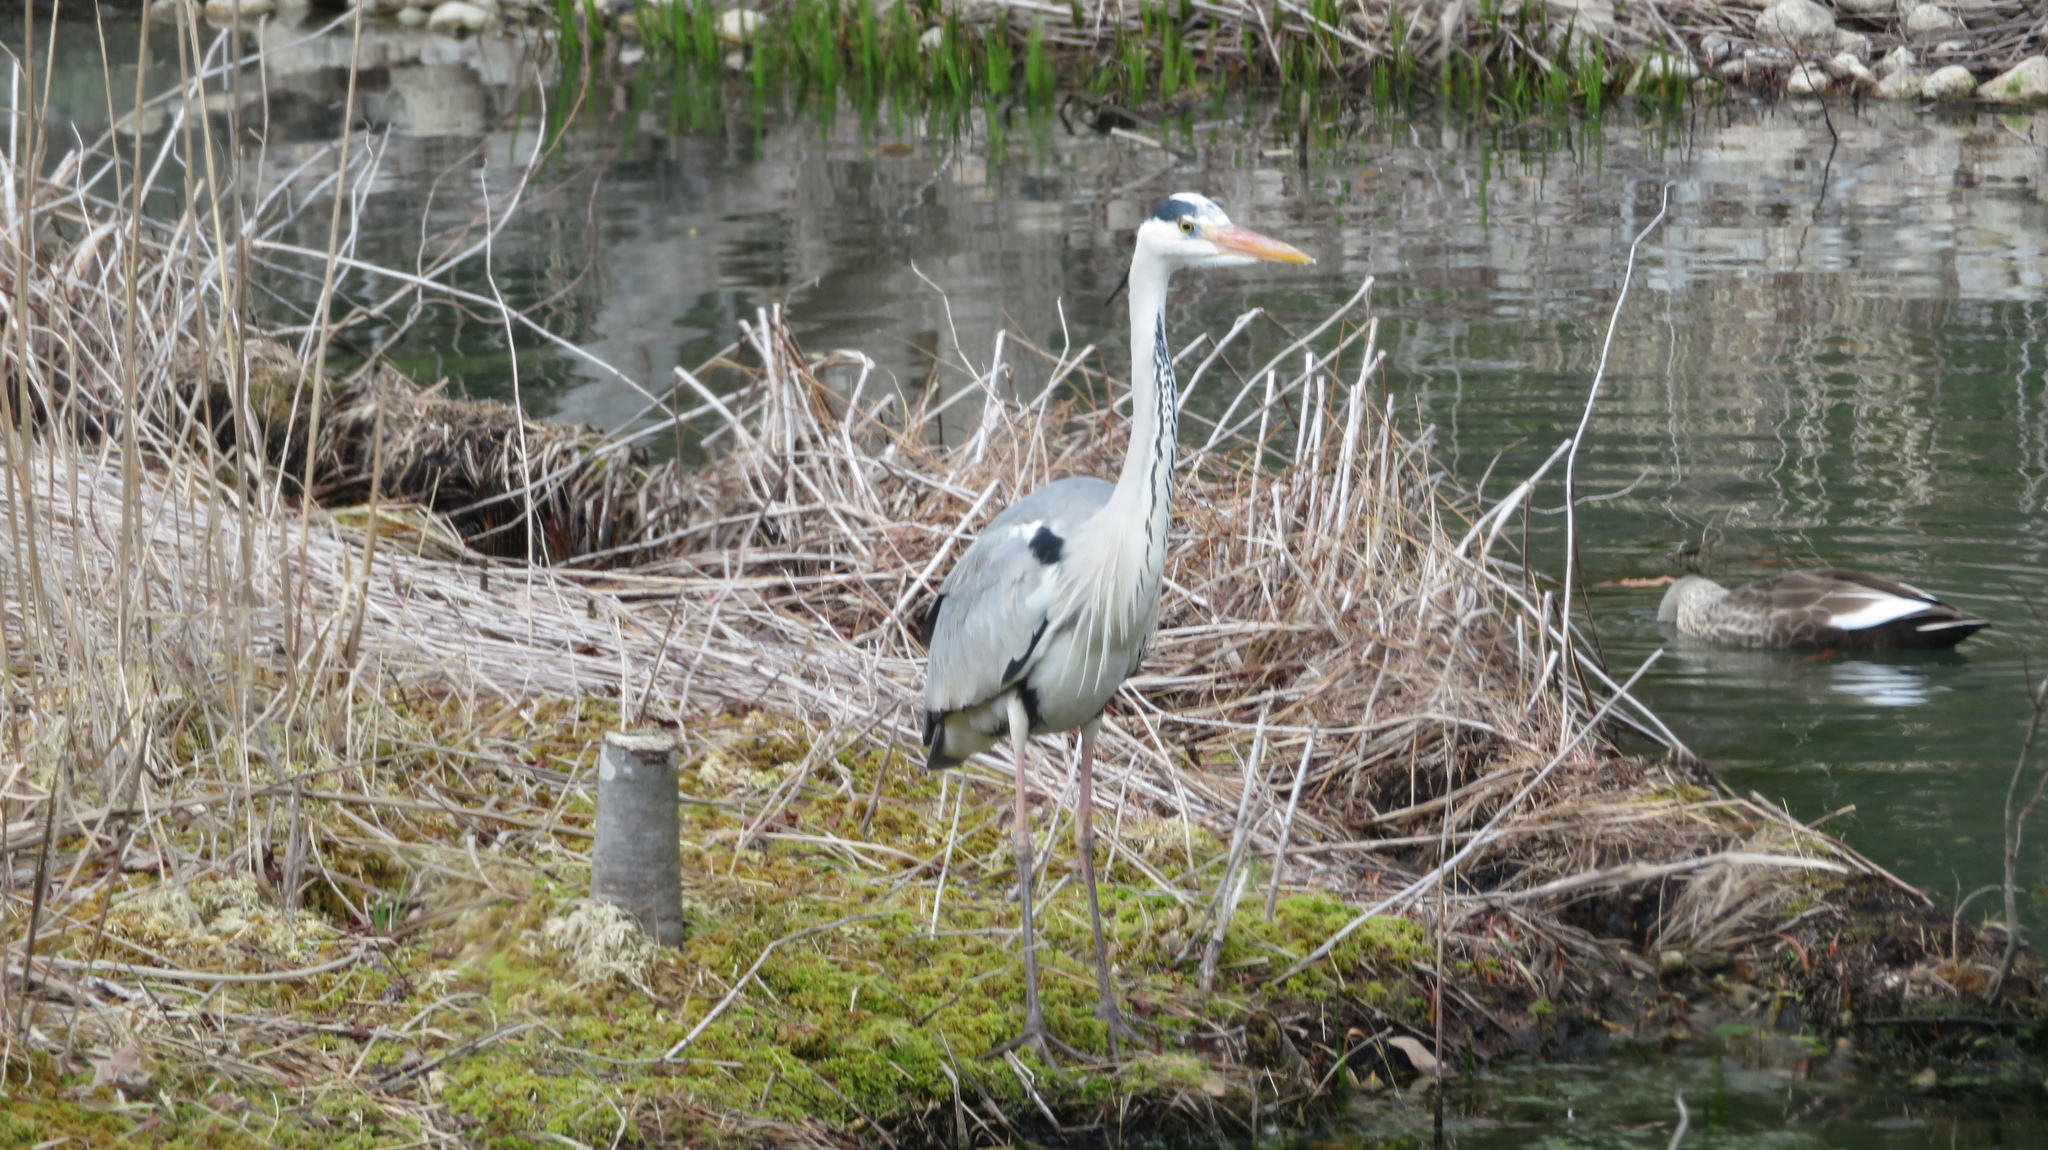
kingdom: Animalia
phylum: Chordata
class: Aves
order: Pelecaniformes
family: Ardeidae
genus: Ardea
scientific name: Ardea cinerea
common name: Grey heron
